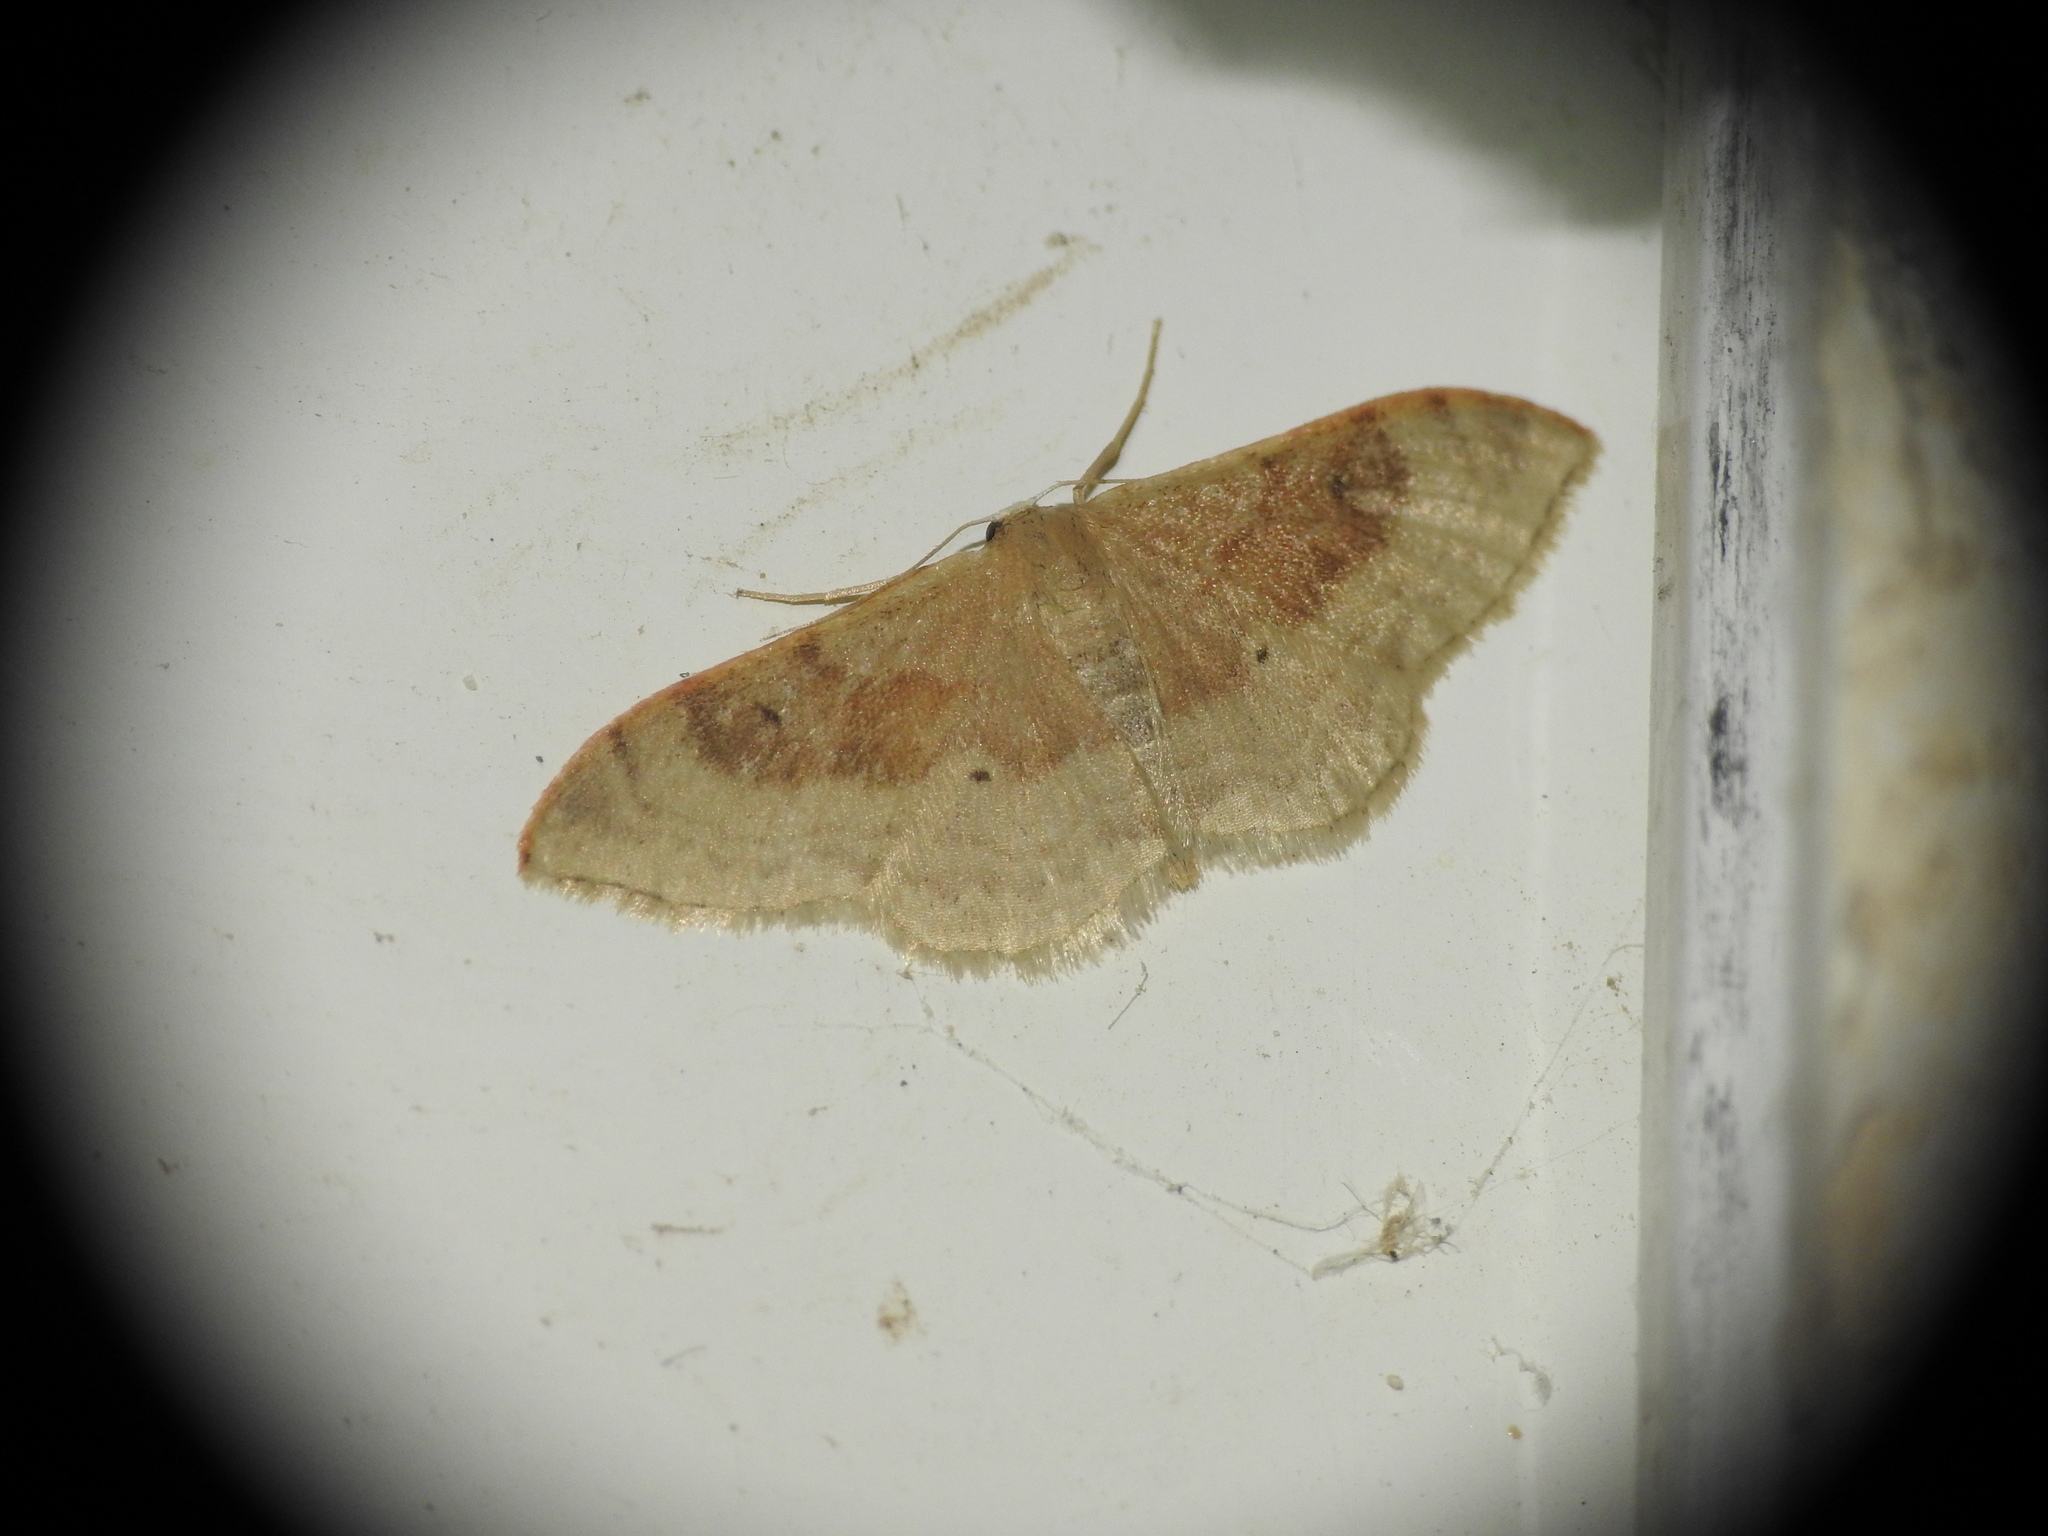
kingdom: Animalia
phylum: Arthropoda
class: Insecta
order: Lepidoptera
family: Geometridae
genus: Idaea
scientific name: Idaea degeneraria
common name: Portland ribbon wave
